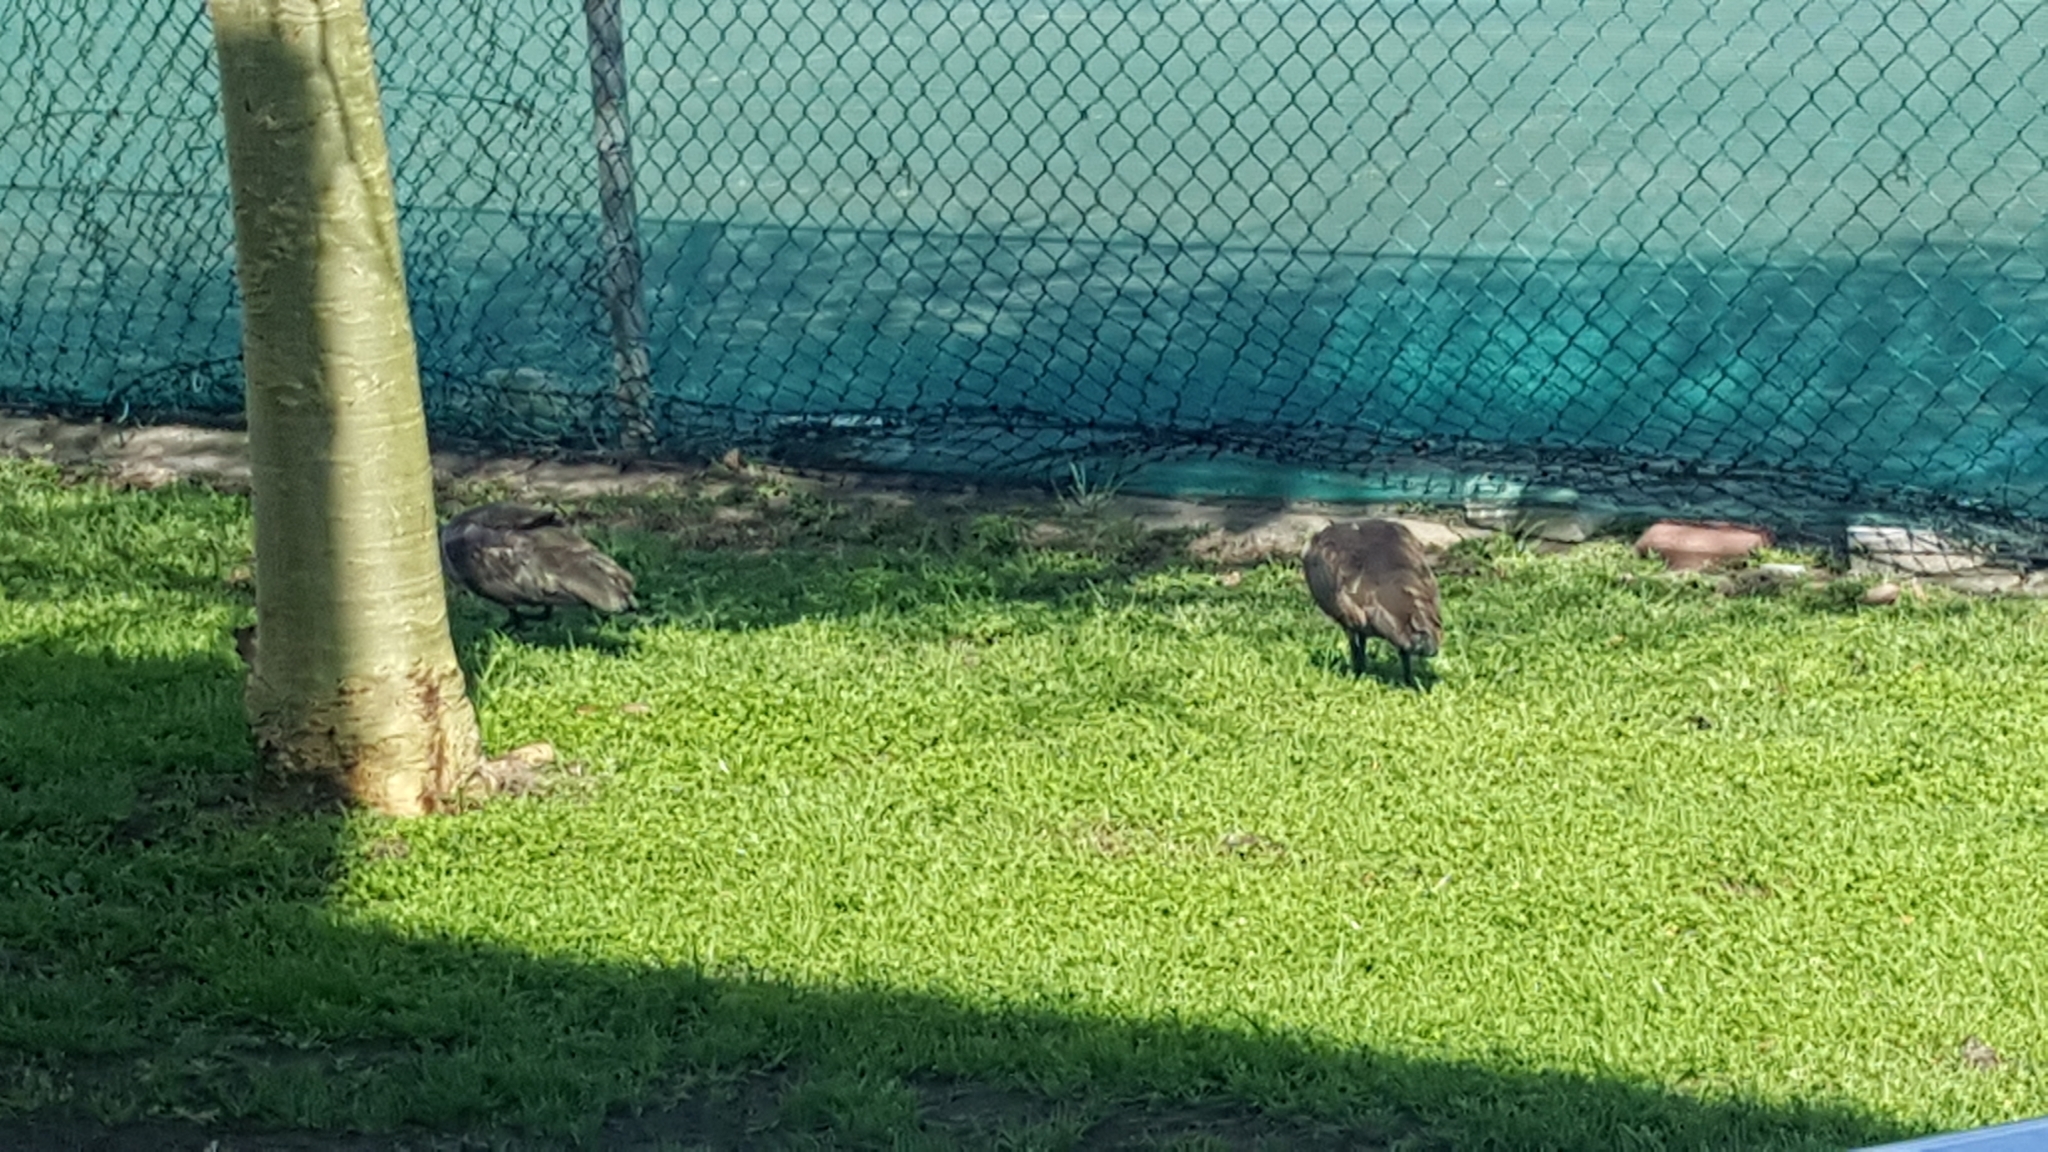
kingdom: Animalia
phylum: Chordata
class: Aves
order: Pelecaniformes
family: Threskiornithidae
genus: Bostrychia
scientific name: Bostrychia hagedash
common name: Hadada ibis
